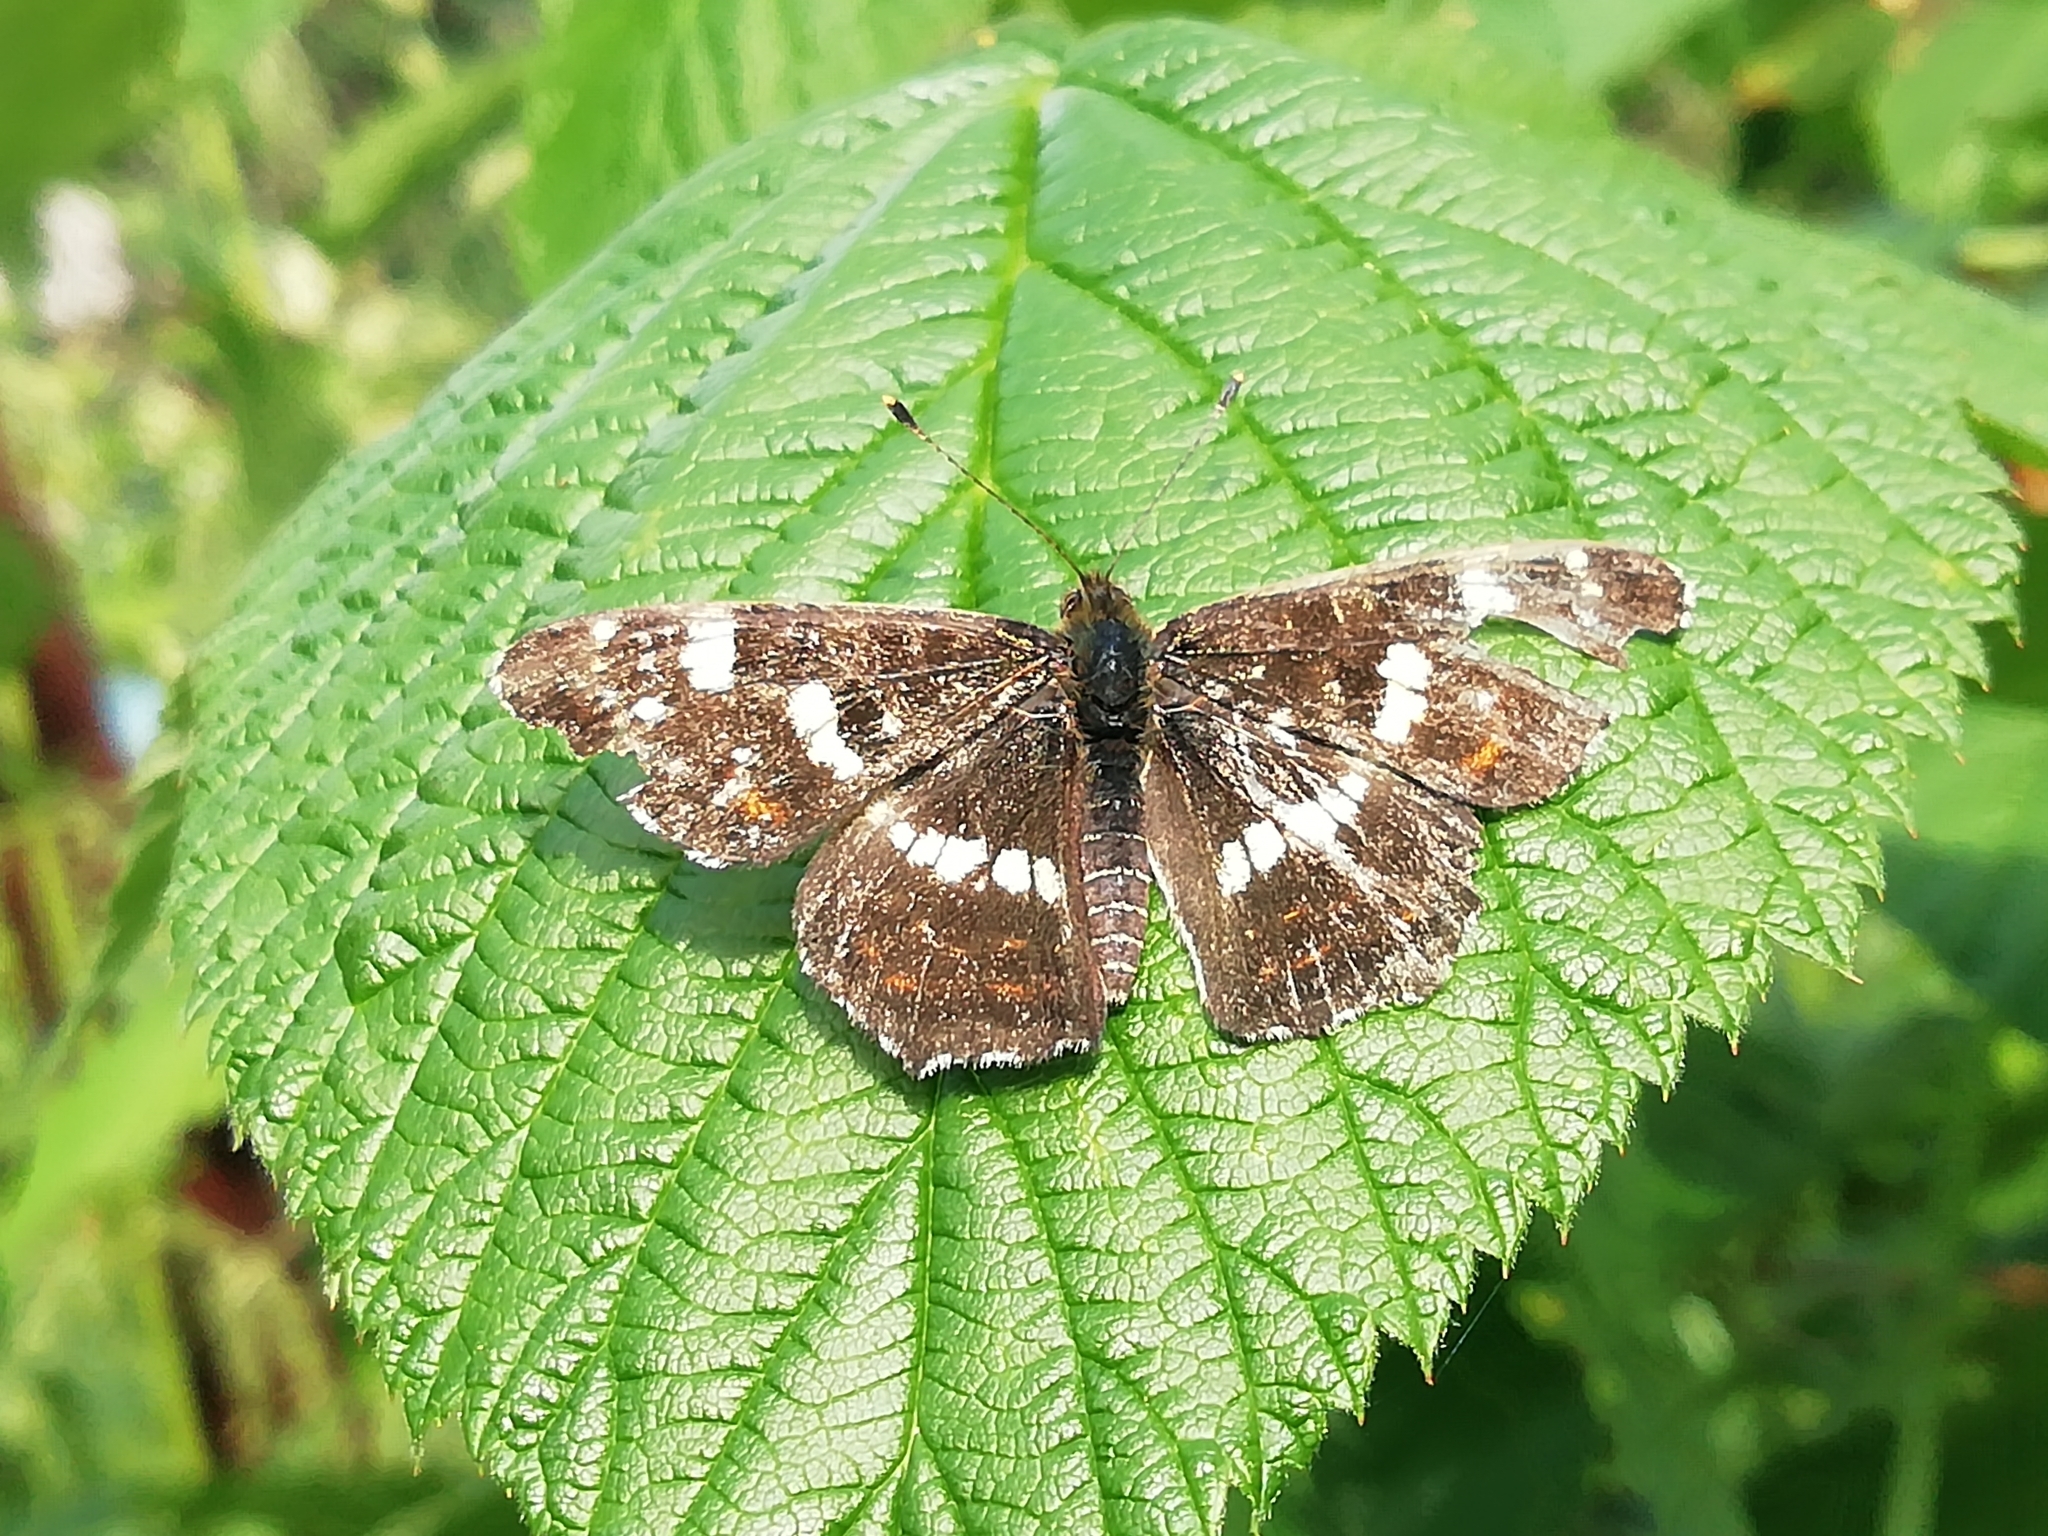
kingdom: Animalia
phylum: Arthropoda
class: Insecta
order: Lepidoptera
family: Nymphalidae
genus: Araschnia
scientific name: Araschnia levana
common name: Map butterfly
